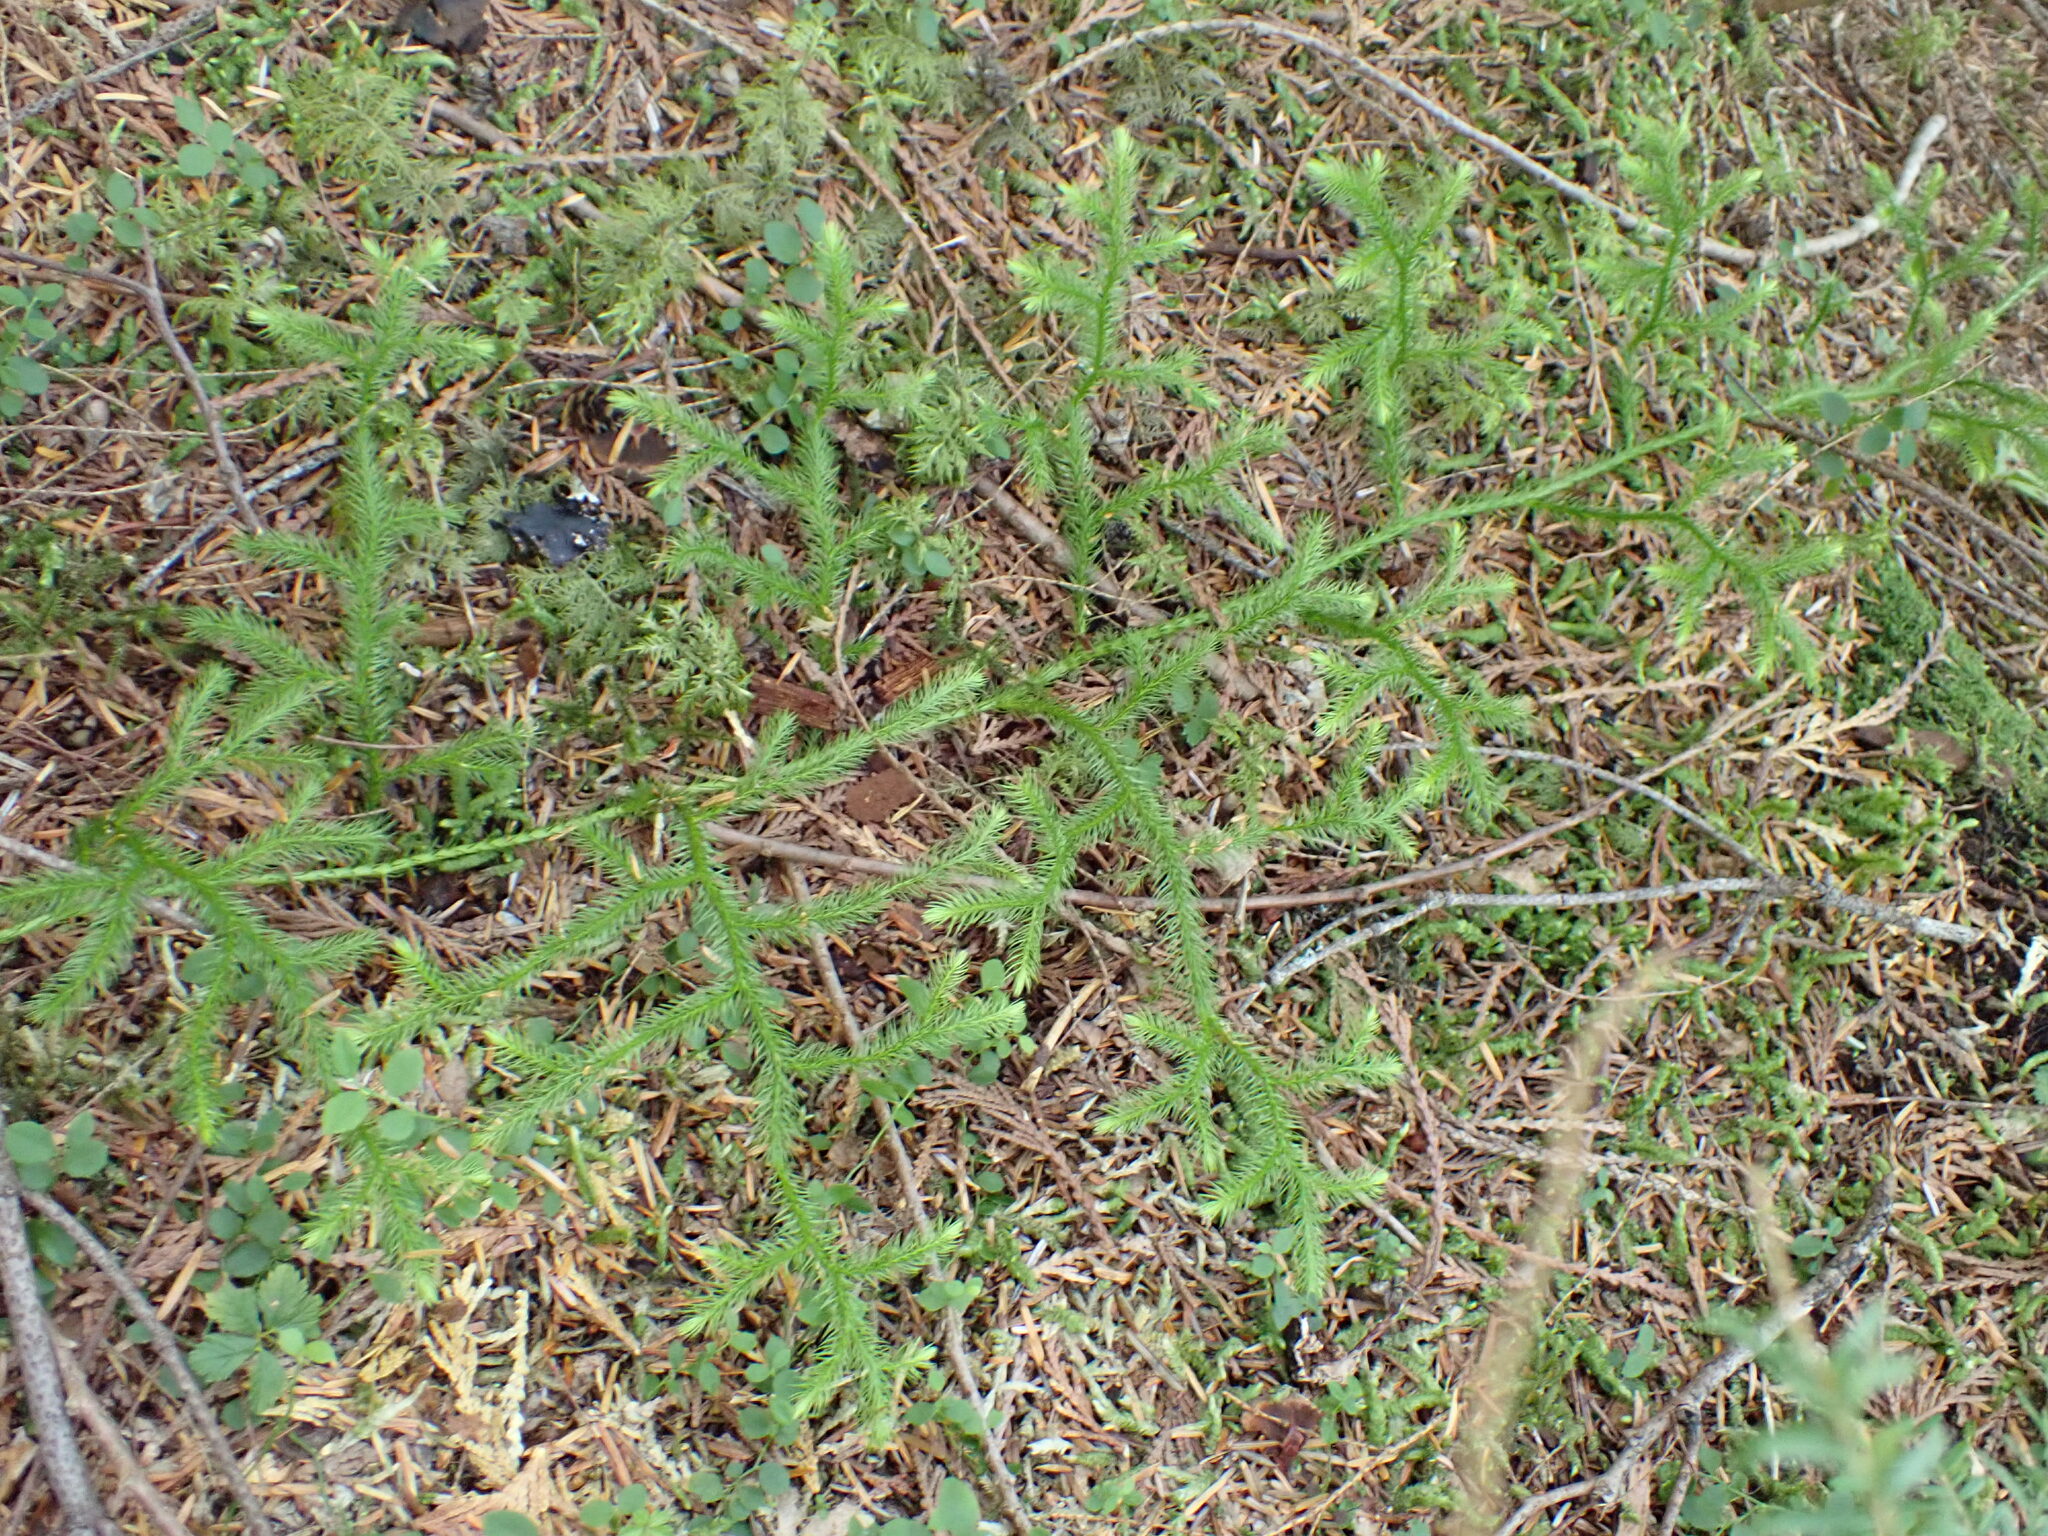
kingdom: Plantae
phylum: Tracheophyta
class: Lycopodiopsida
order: Lycopodiales
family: Lycopodiaceae
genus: Lycopodium
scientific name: Lycopodium clavatum
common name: Stag's-horn clubmoss
